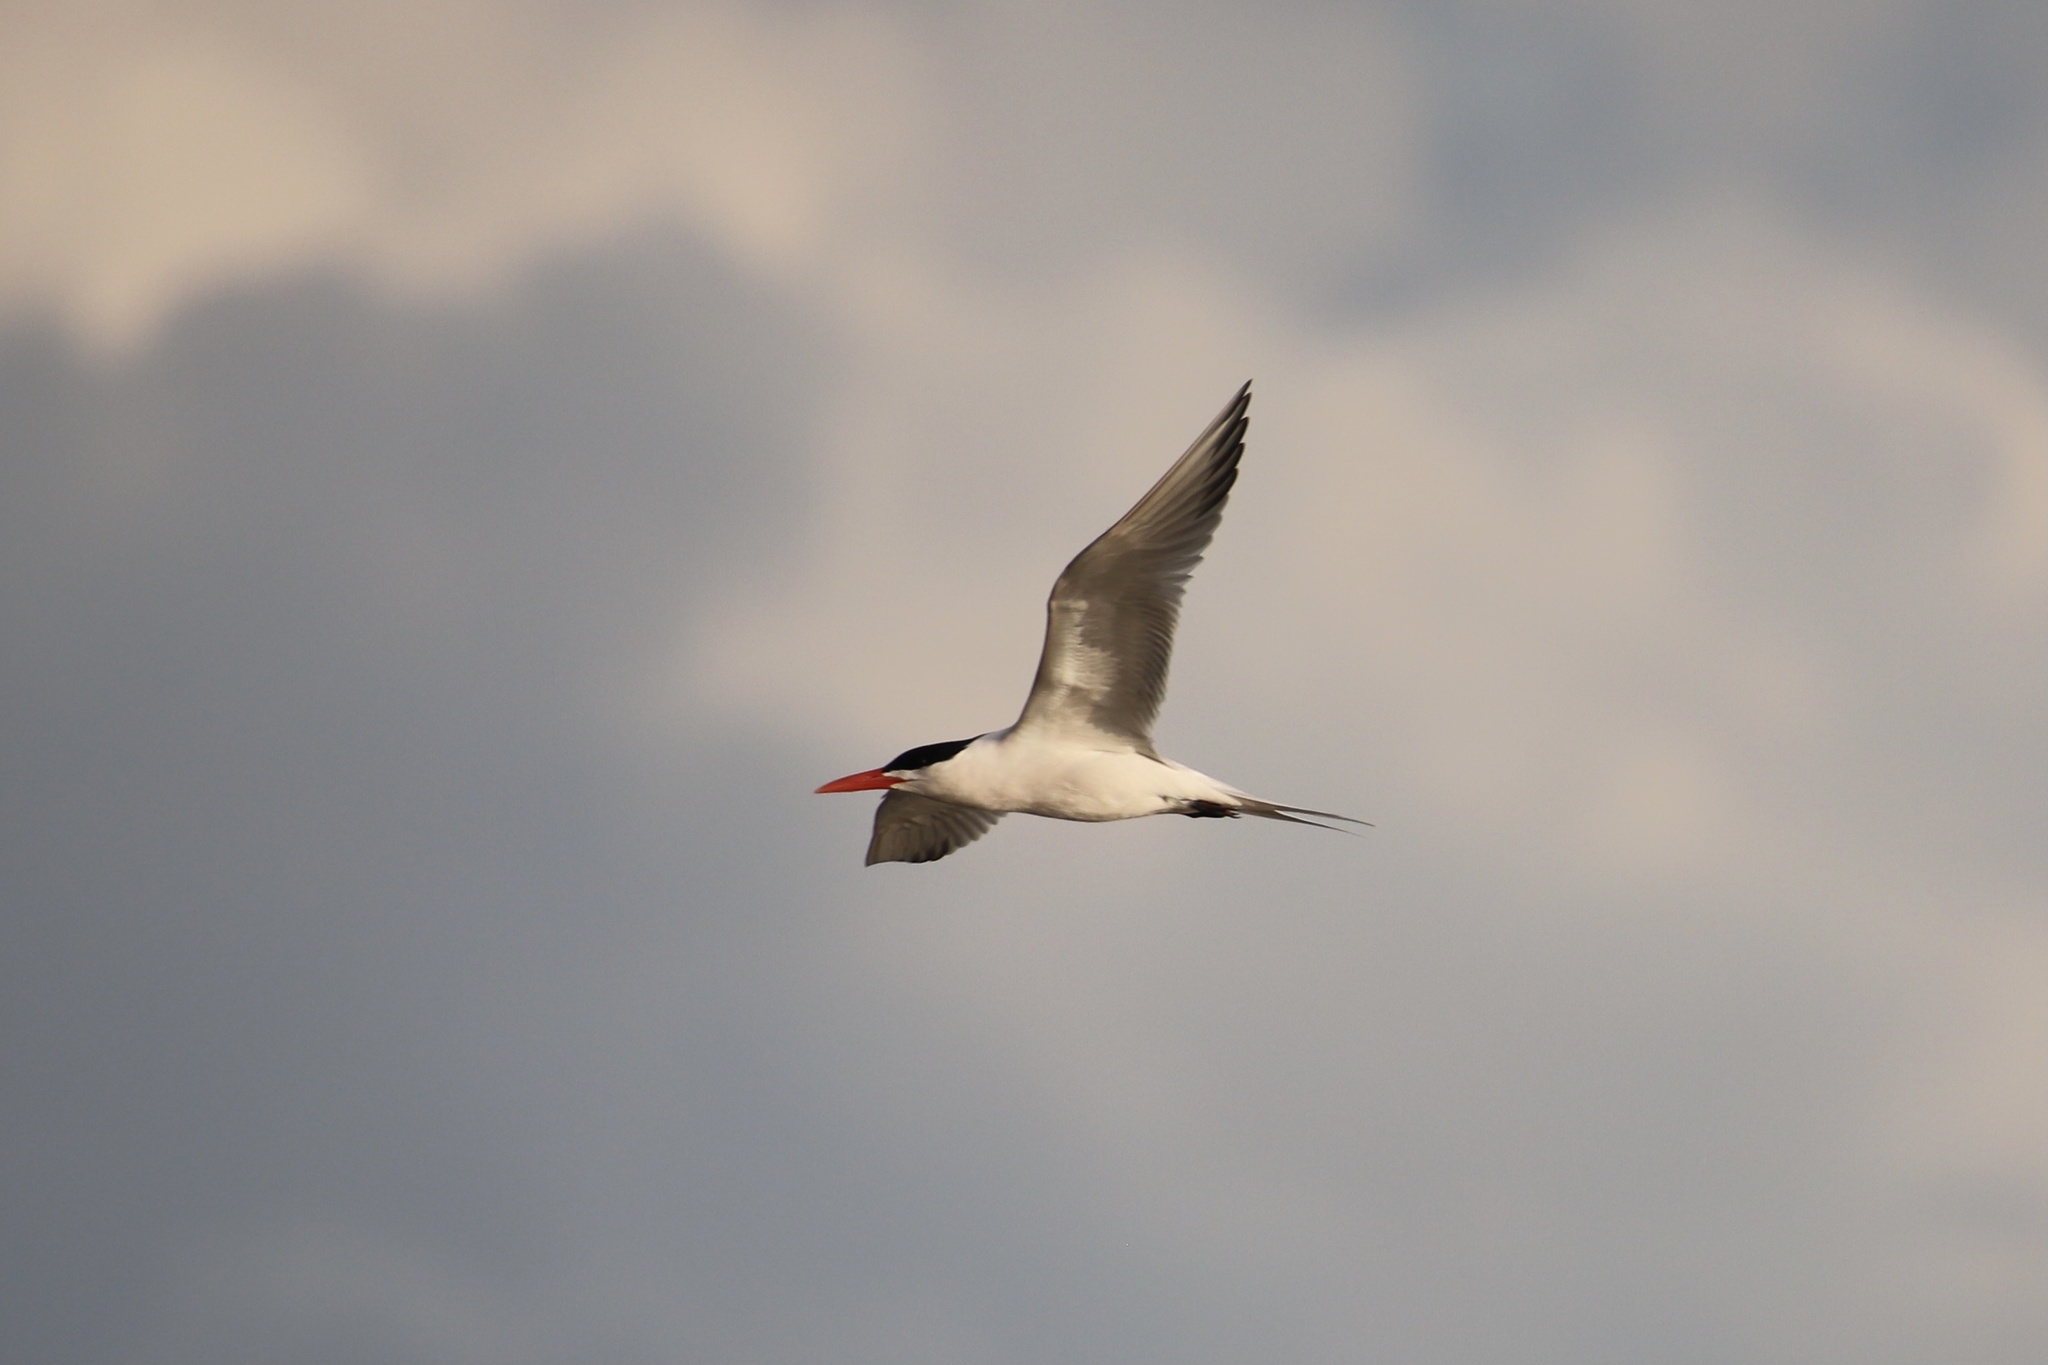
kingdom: Animalia
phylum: Chordata
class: Aves
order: Charadriiformes
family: Laridae
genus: Thalasseus
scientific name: Thalasseus maximus
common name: Royal tern
